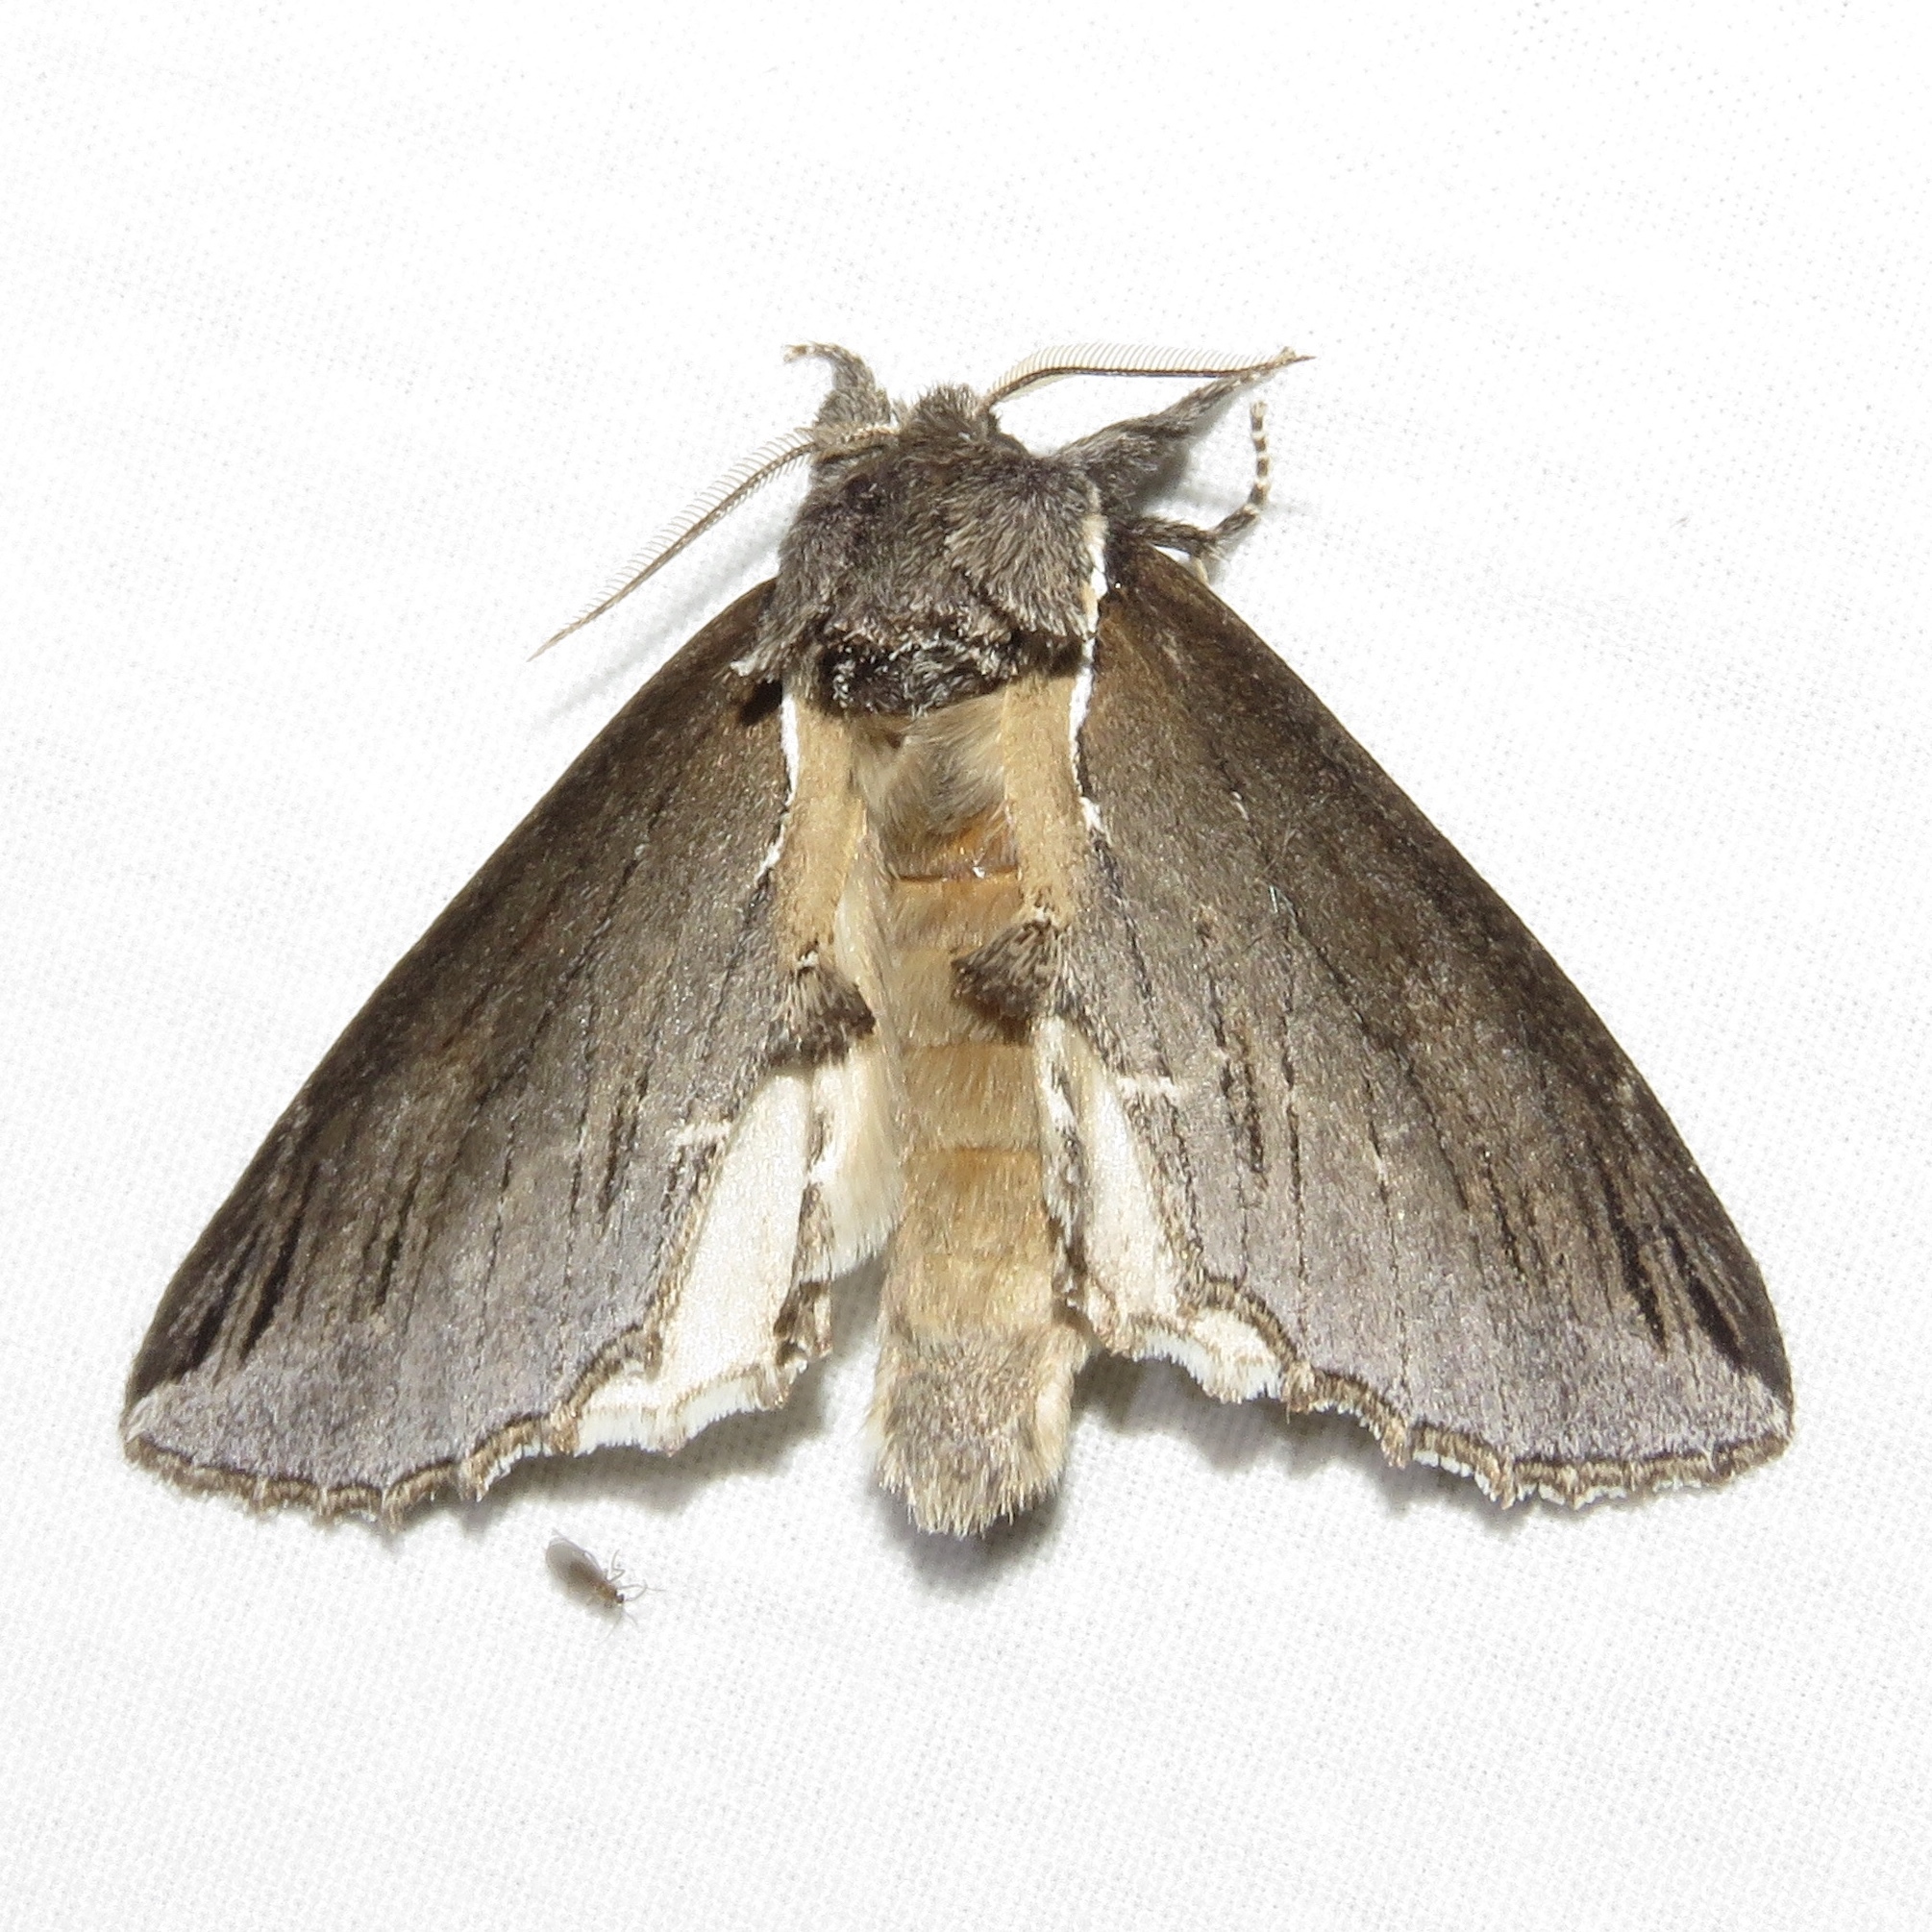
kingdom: Animalia
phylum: Arthropoda
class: Insecta
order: Lepidoptera
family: Notodontidae
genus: Pheosidea
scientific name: Pheosidea elegans
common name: Elegant prominent
